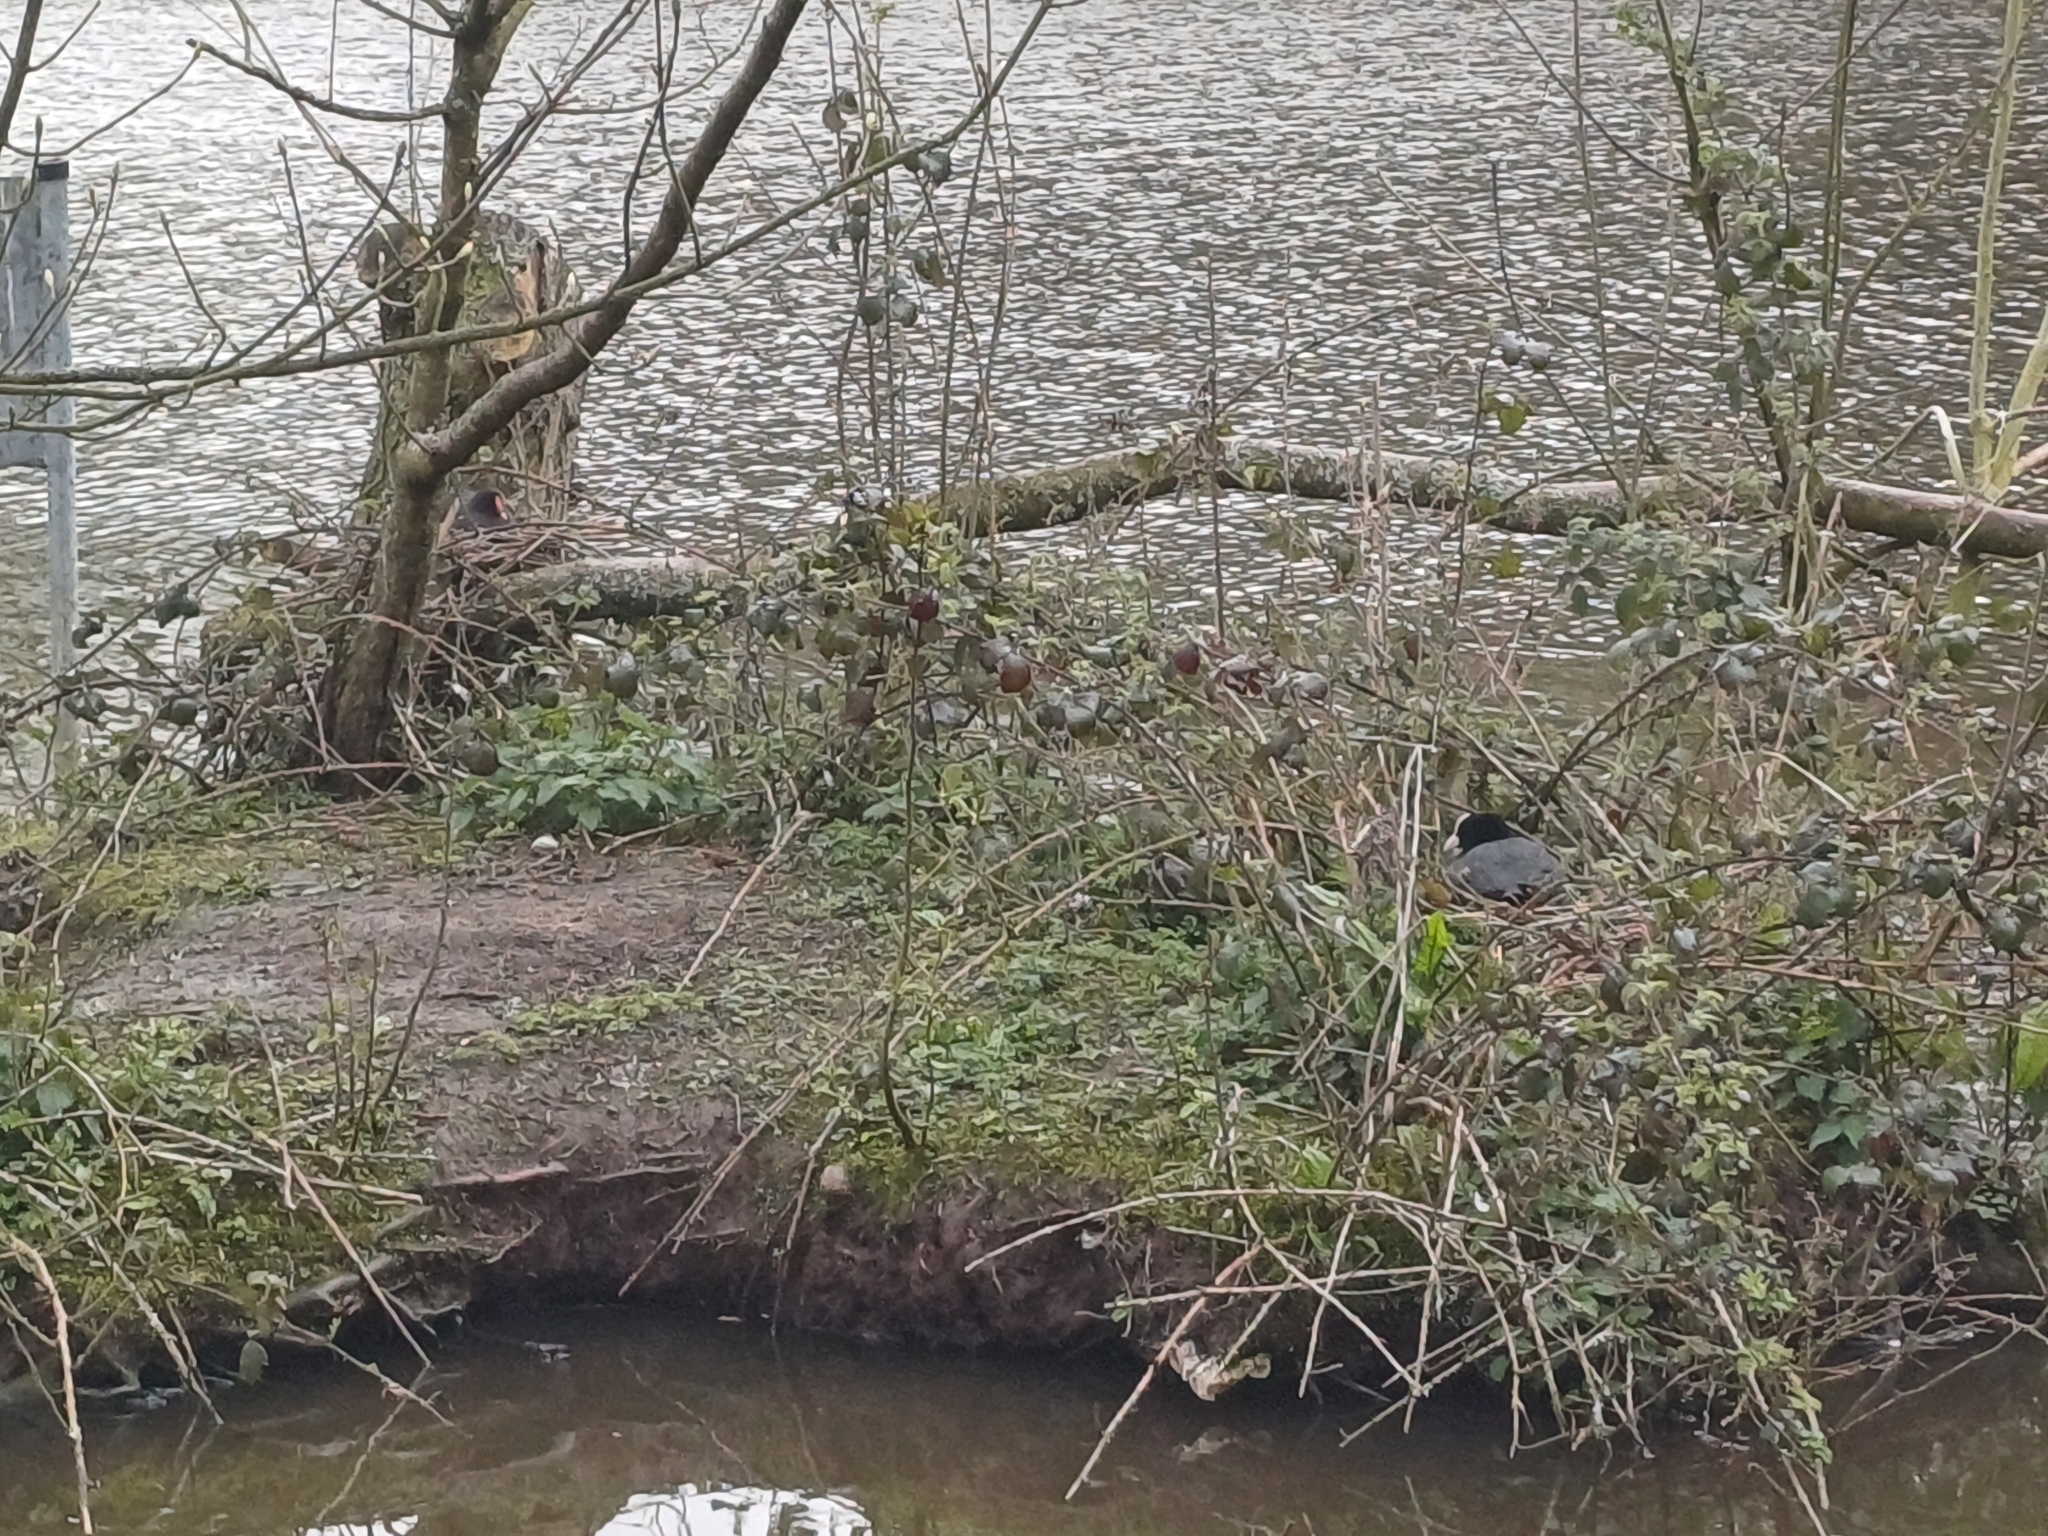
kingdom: Animalia
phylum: Chordata
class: Aves
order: Gruiformes
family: Rallidae
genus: Fulica
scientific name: Fulica atra
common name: Eurasian coot
